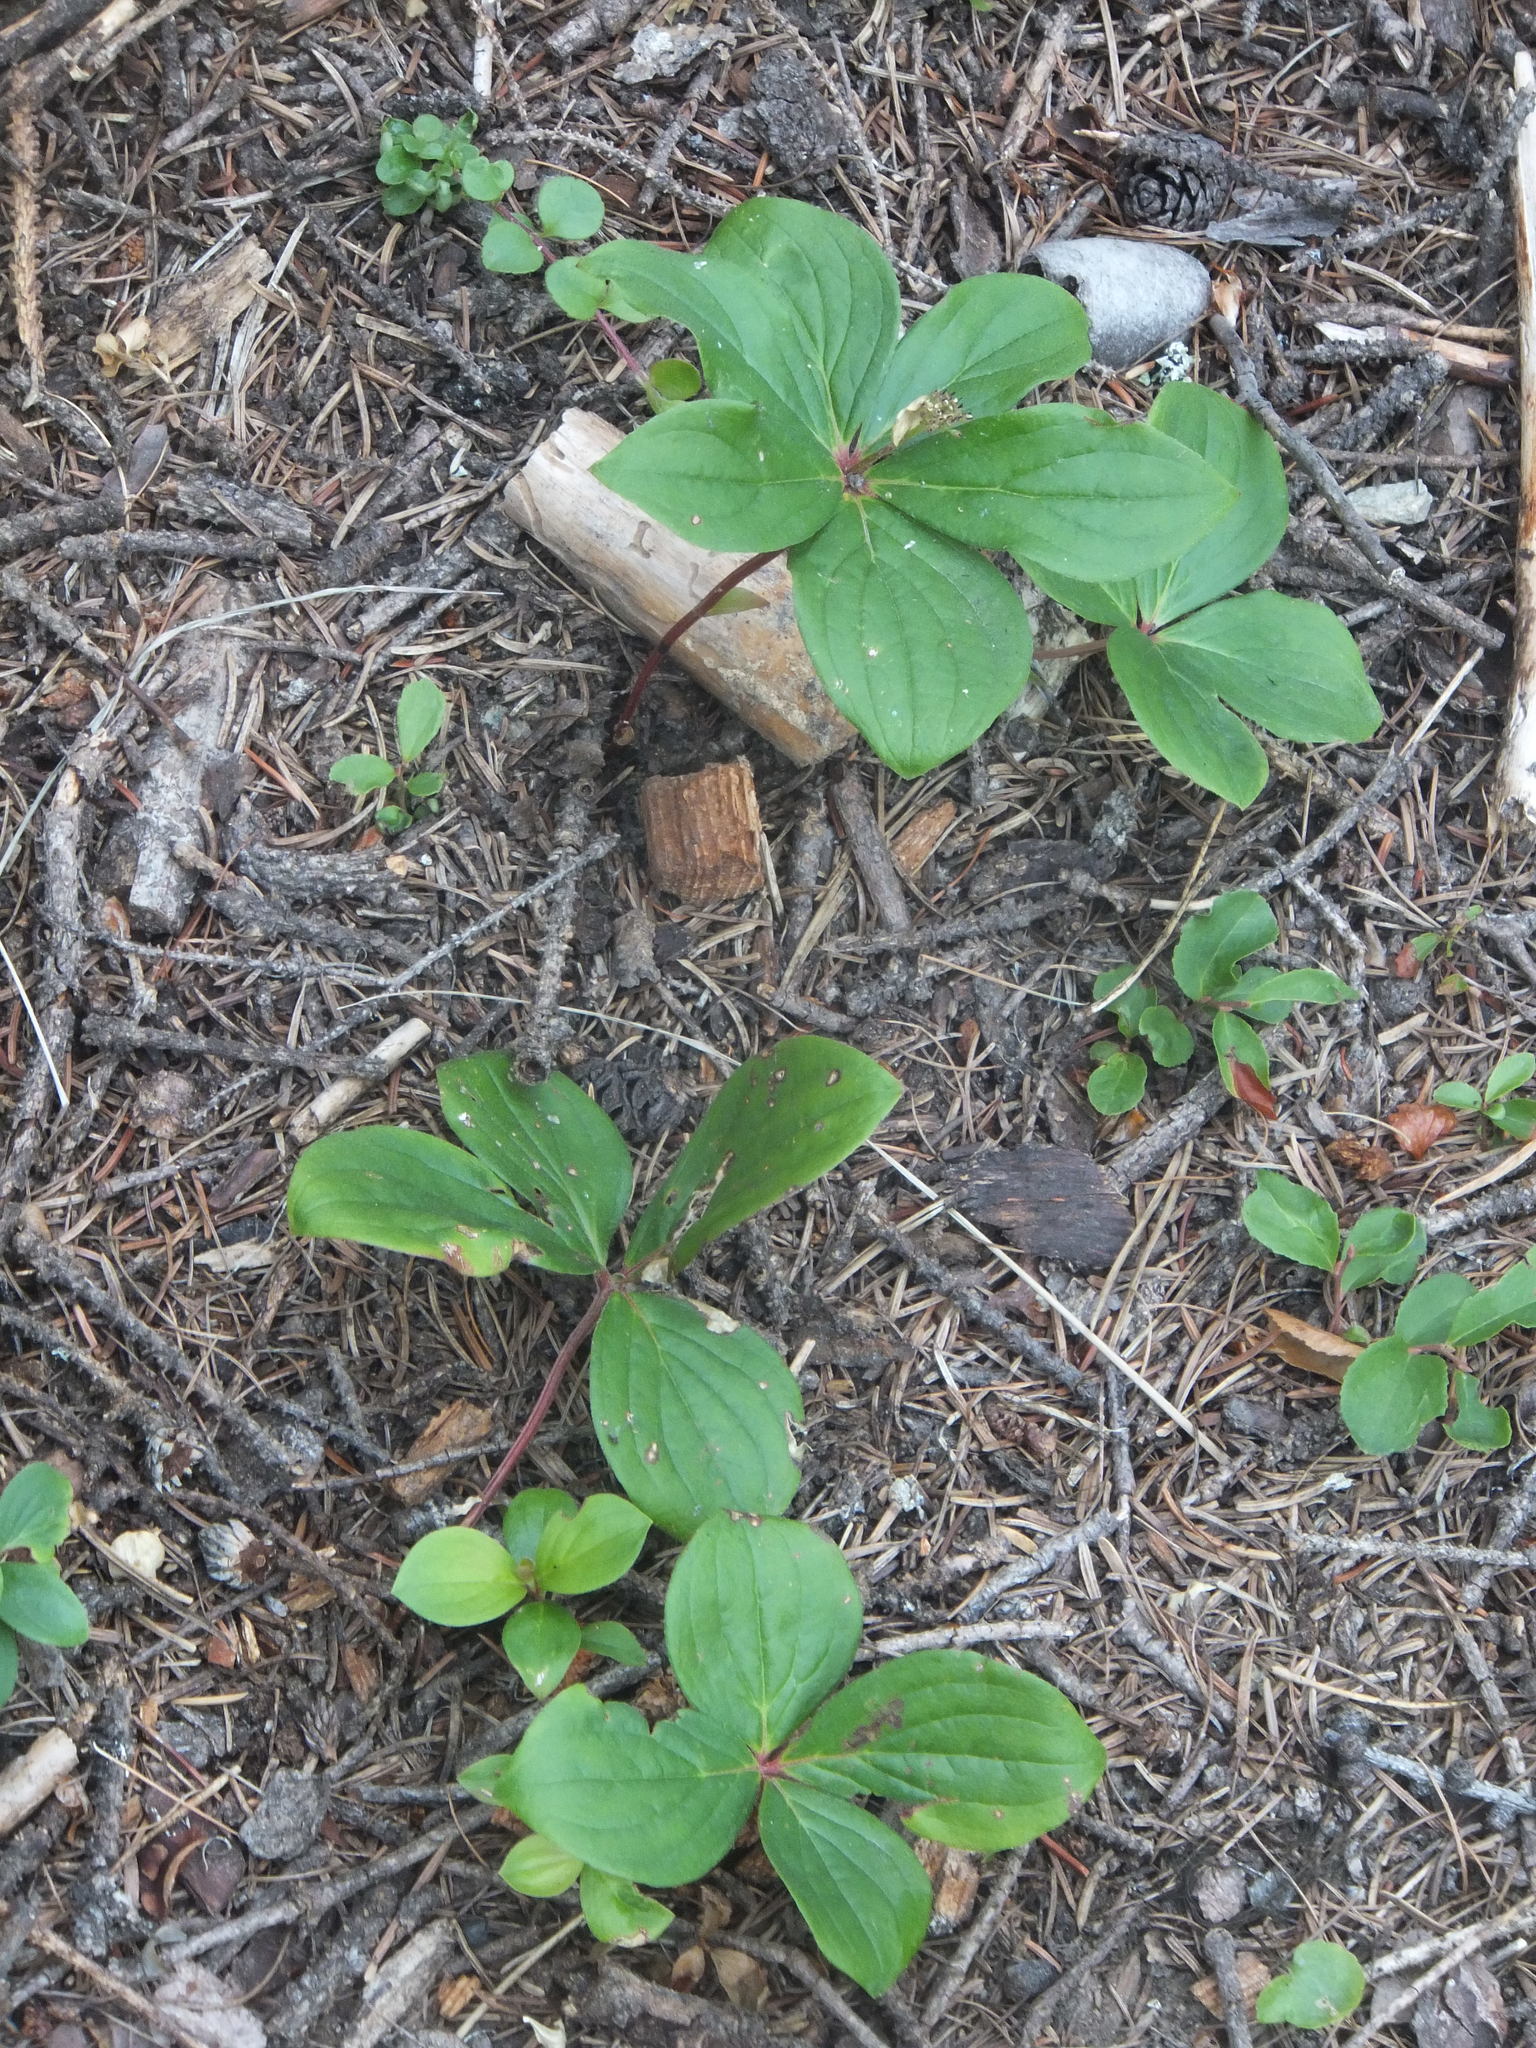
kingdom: Plantae
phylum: Tracheophyta
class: Magnoliopsida
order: Cornales
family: Cornaceae
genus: Cornus
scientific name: Cornus canadensis
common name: Creeping dogwood
